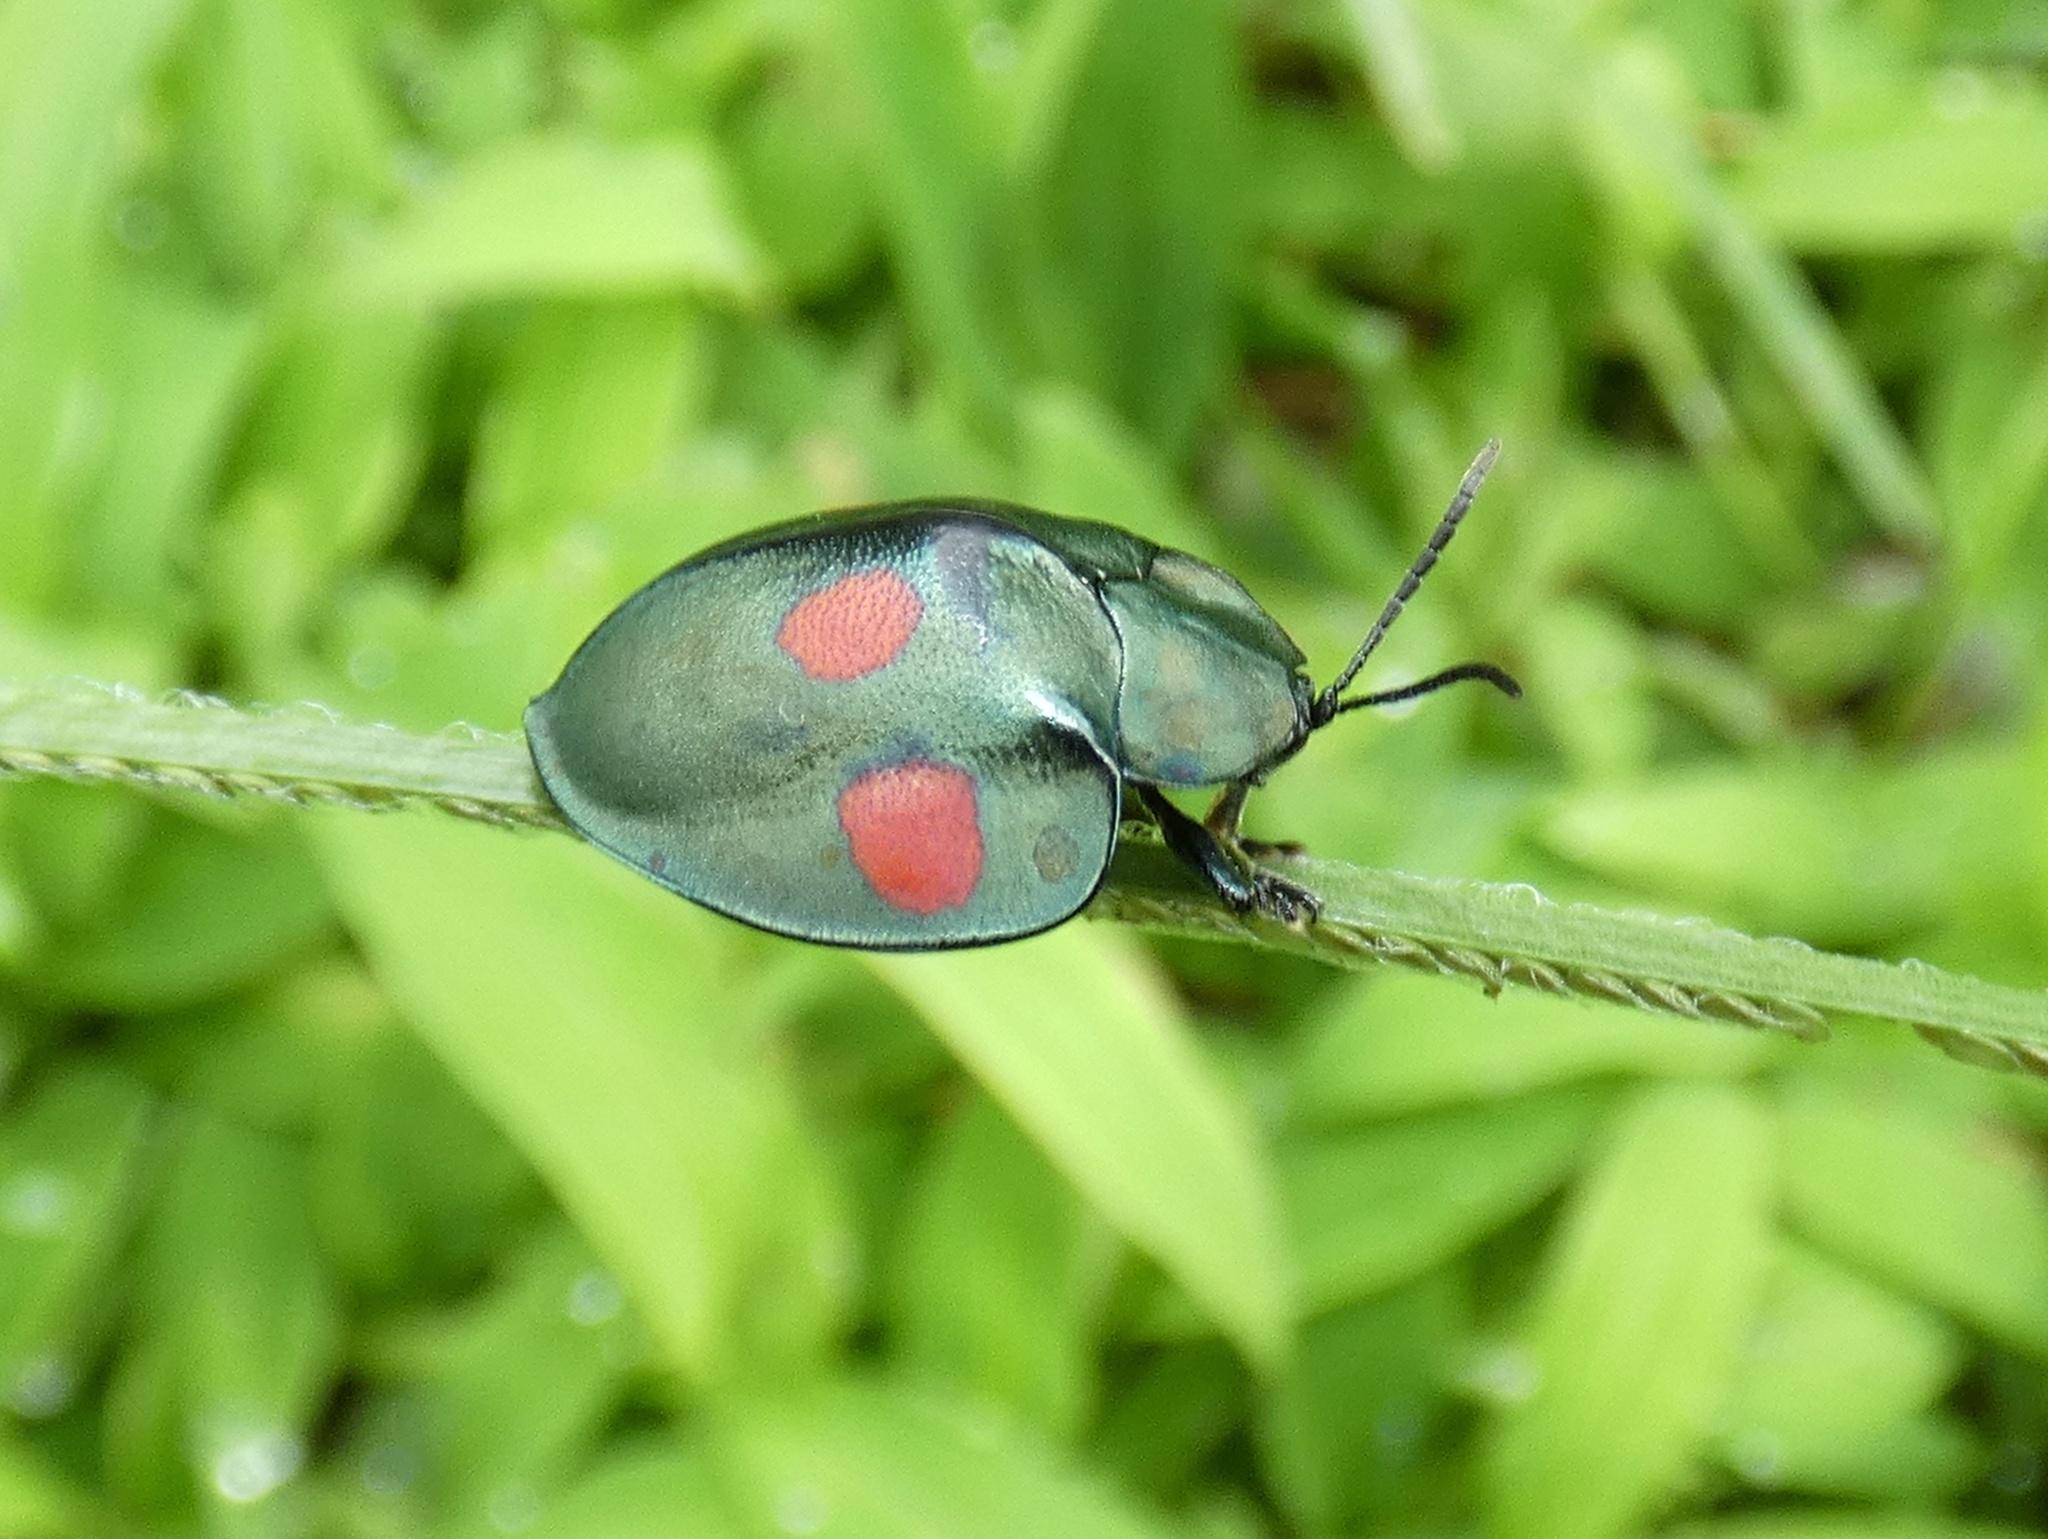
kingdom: Animalia
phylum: Arthropoda
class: Insecta
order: Coleoptera
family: Chrysomelidae
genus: Stolas
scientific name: Stolas lebasii
